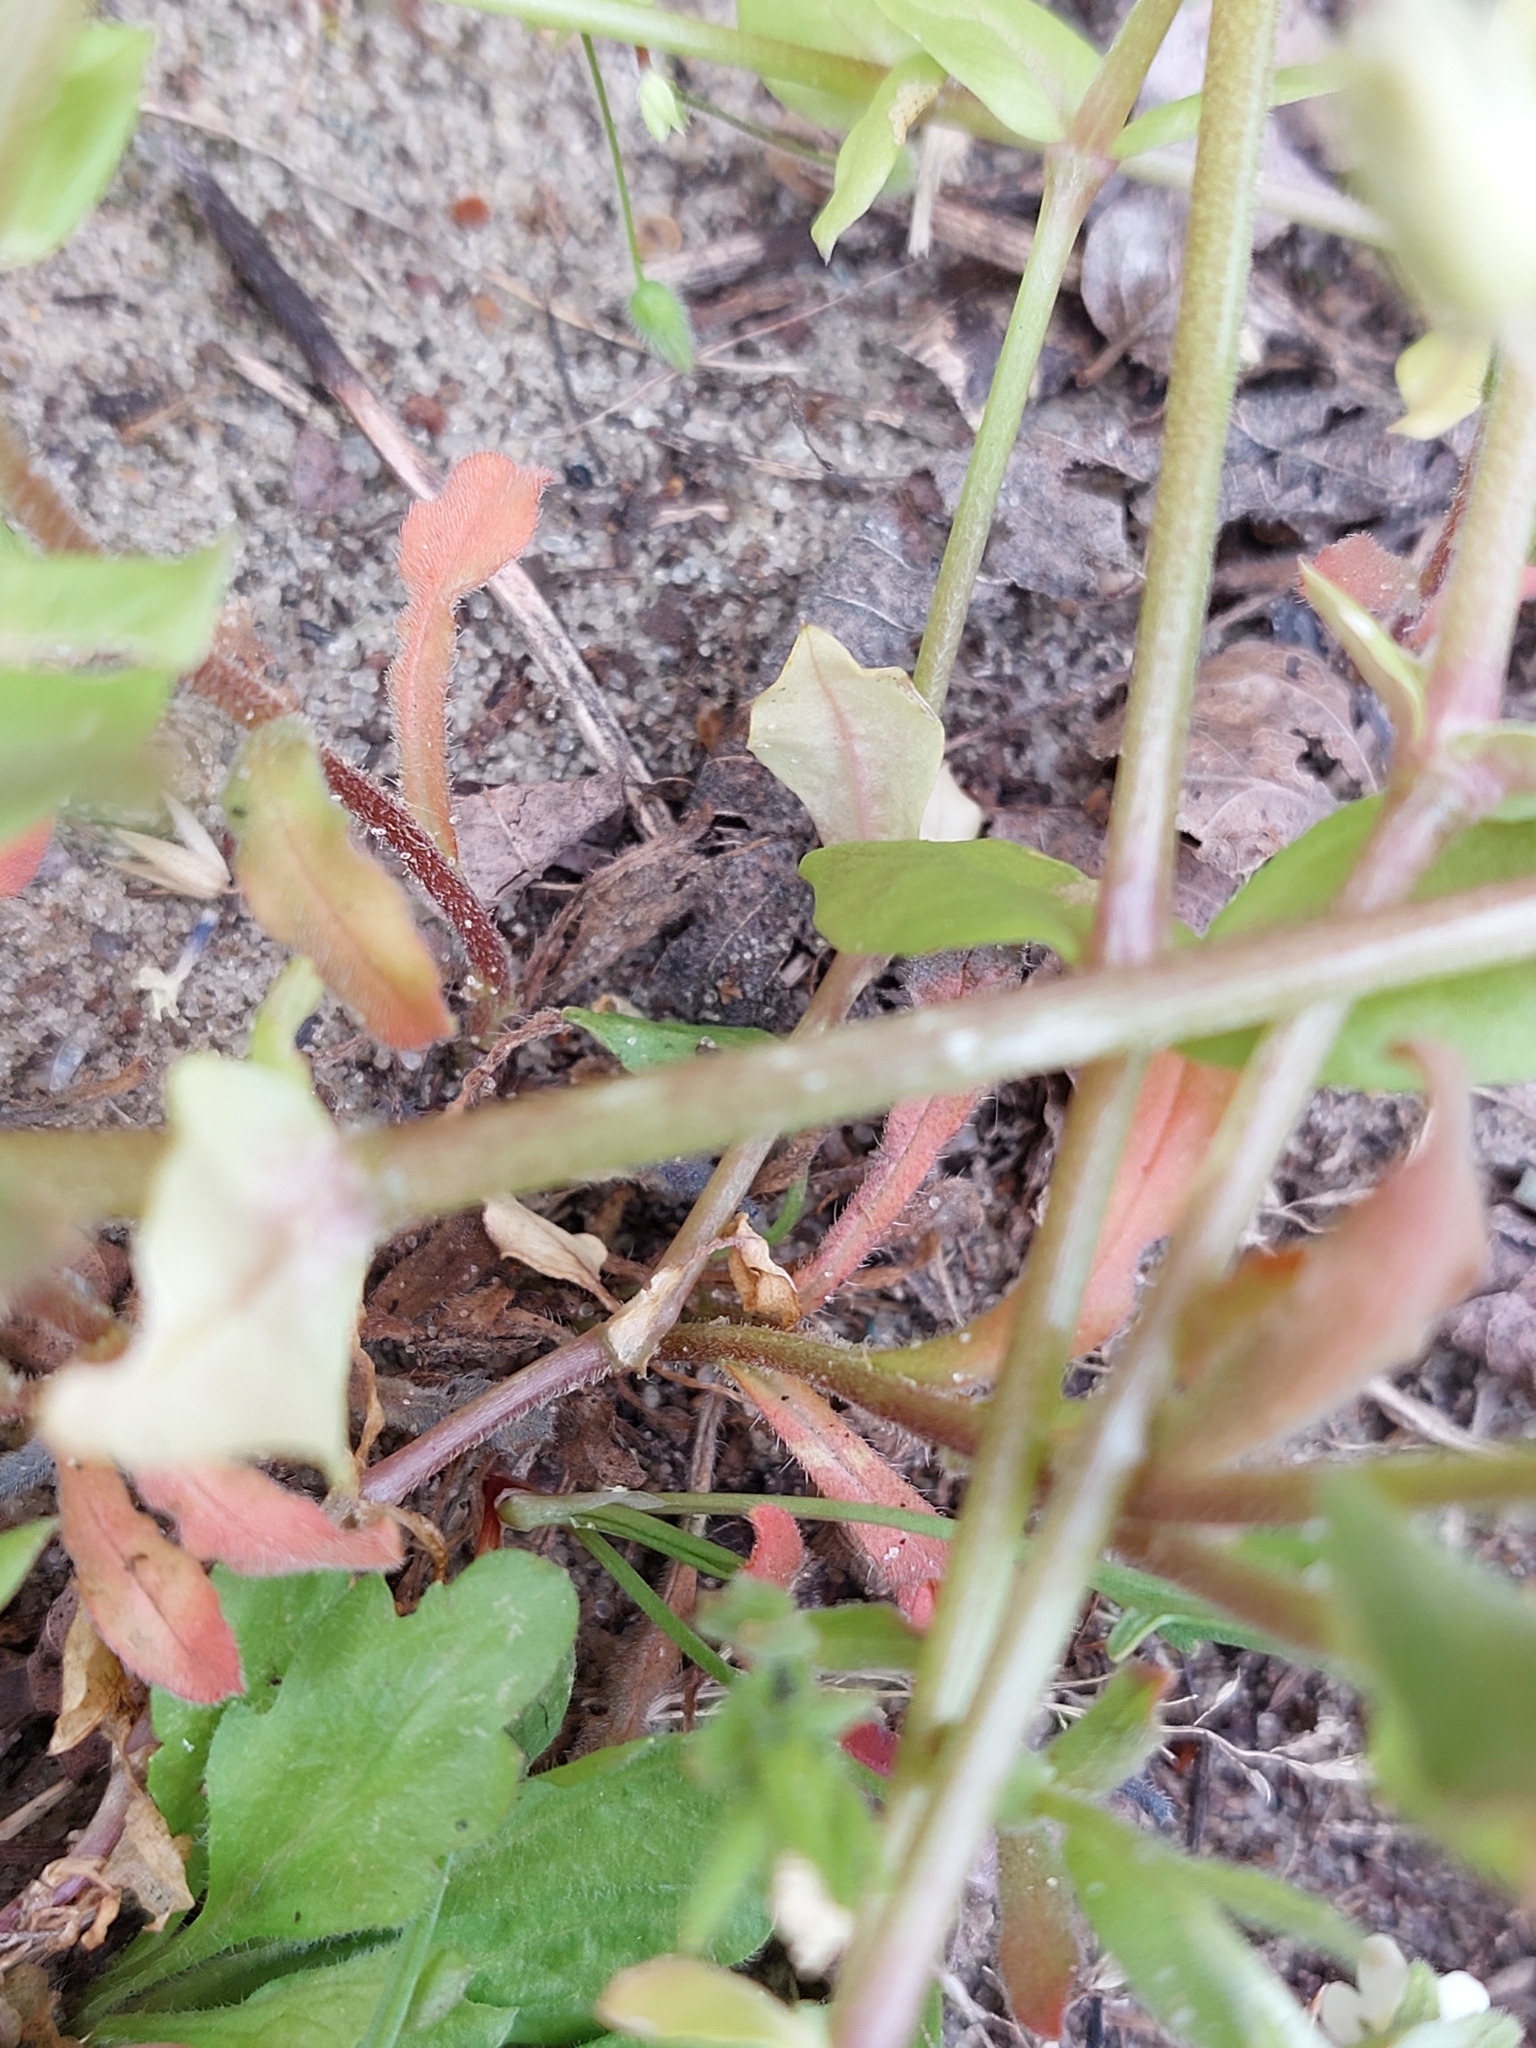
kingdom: Plantae
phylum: Tracheophyta
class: Magnoliopsida
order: Boraginales
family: Boraginaceae
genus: Buglossoides
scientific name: Buglossoides czernjajevii
